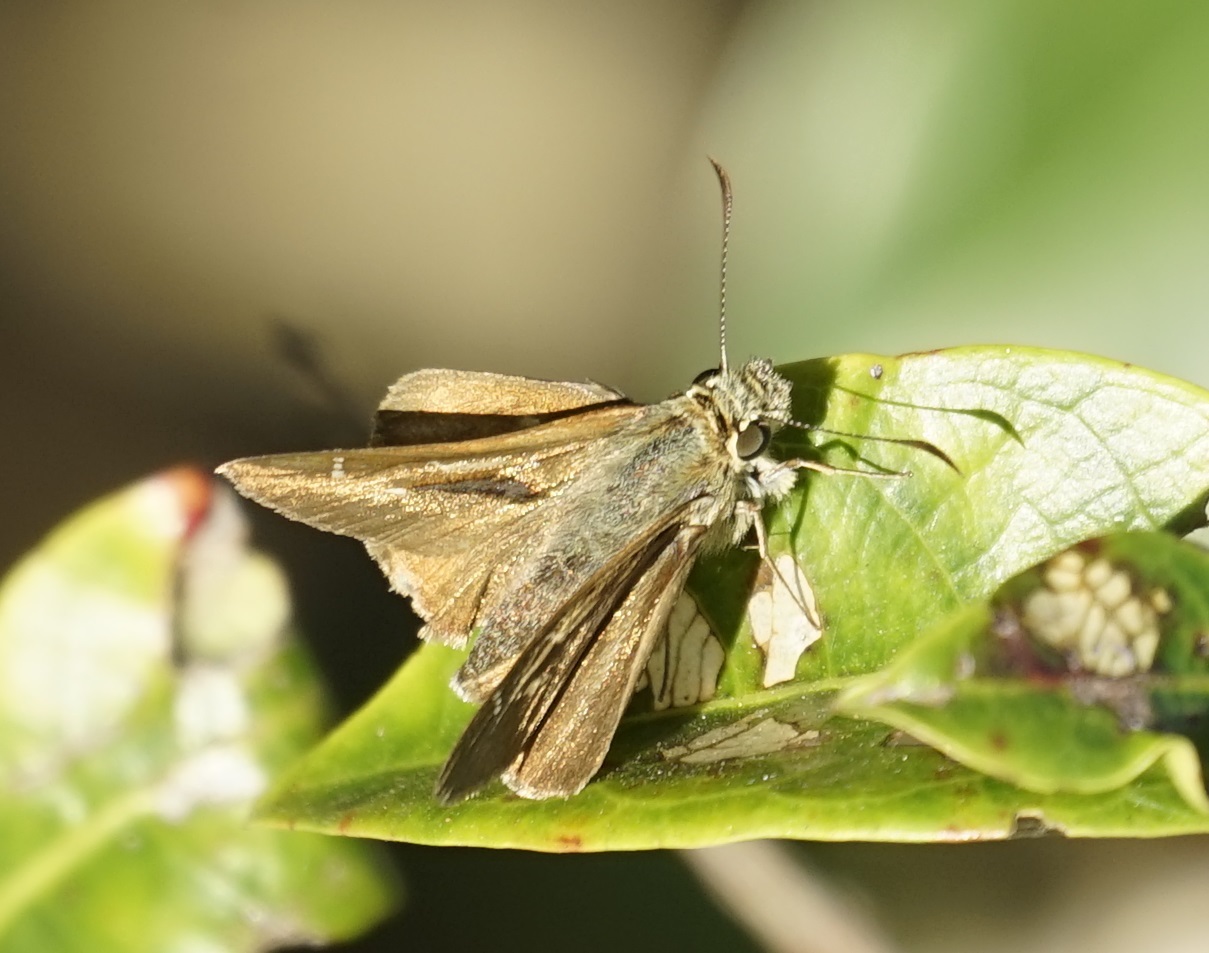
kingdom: Animalia
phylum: Arthropoda
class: Insecta
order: Lepidoptera
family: Hesperiidae
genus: Toxidia
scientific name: Toxidia
